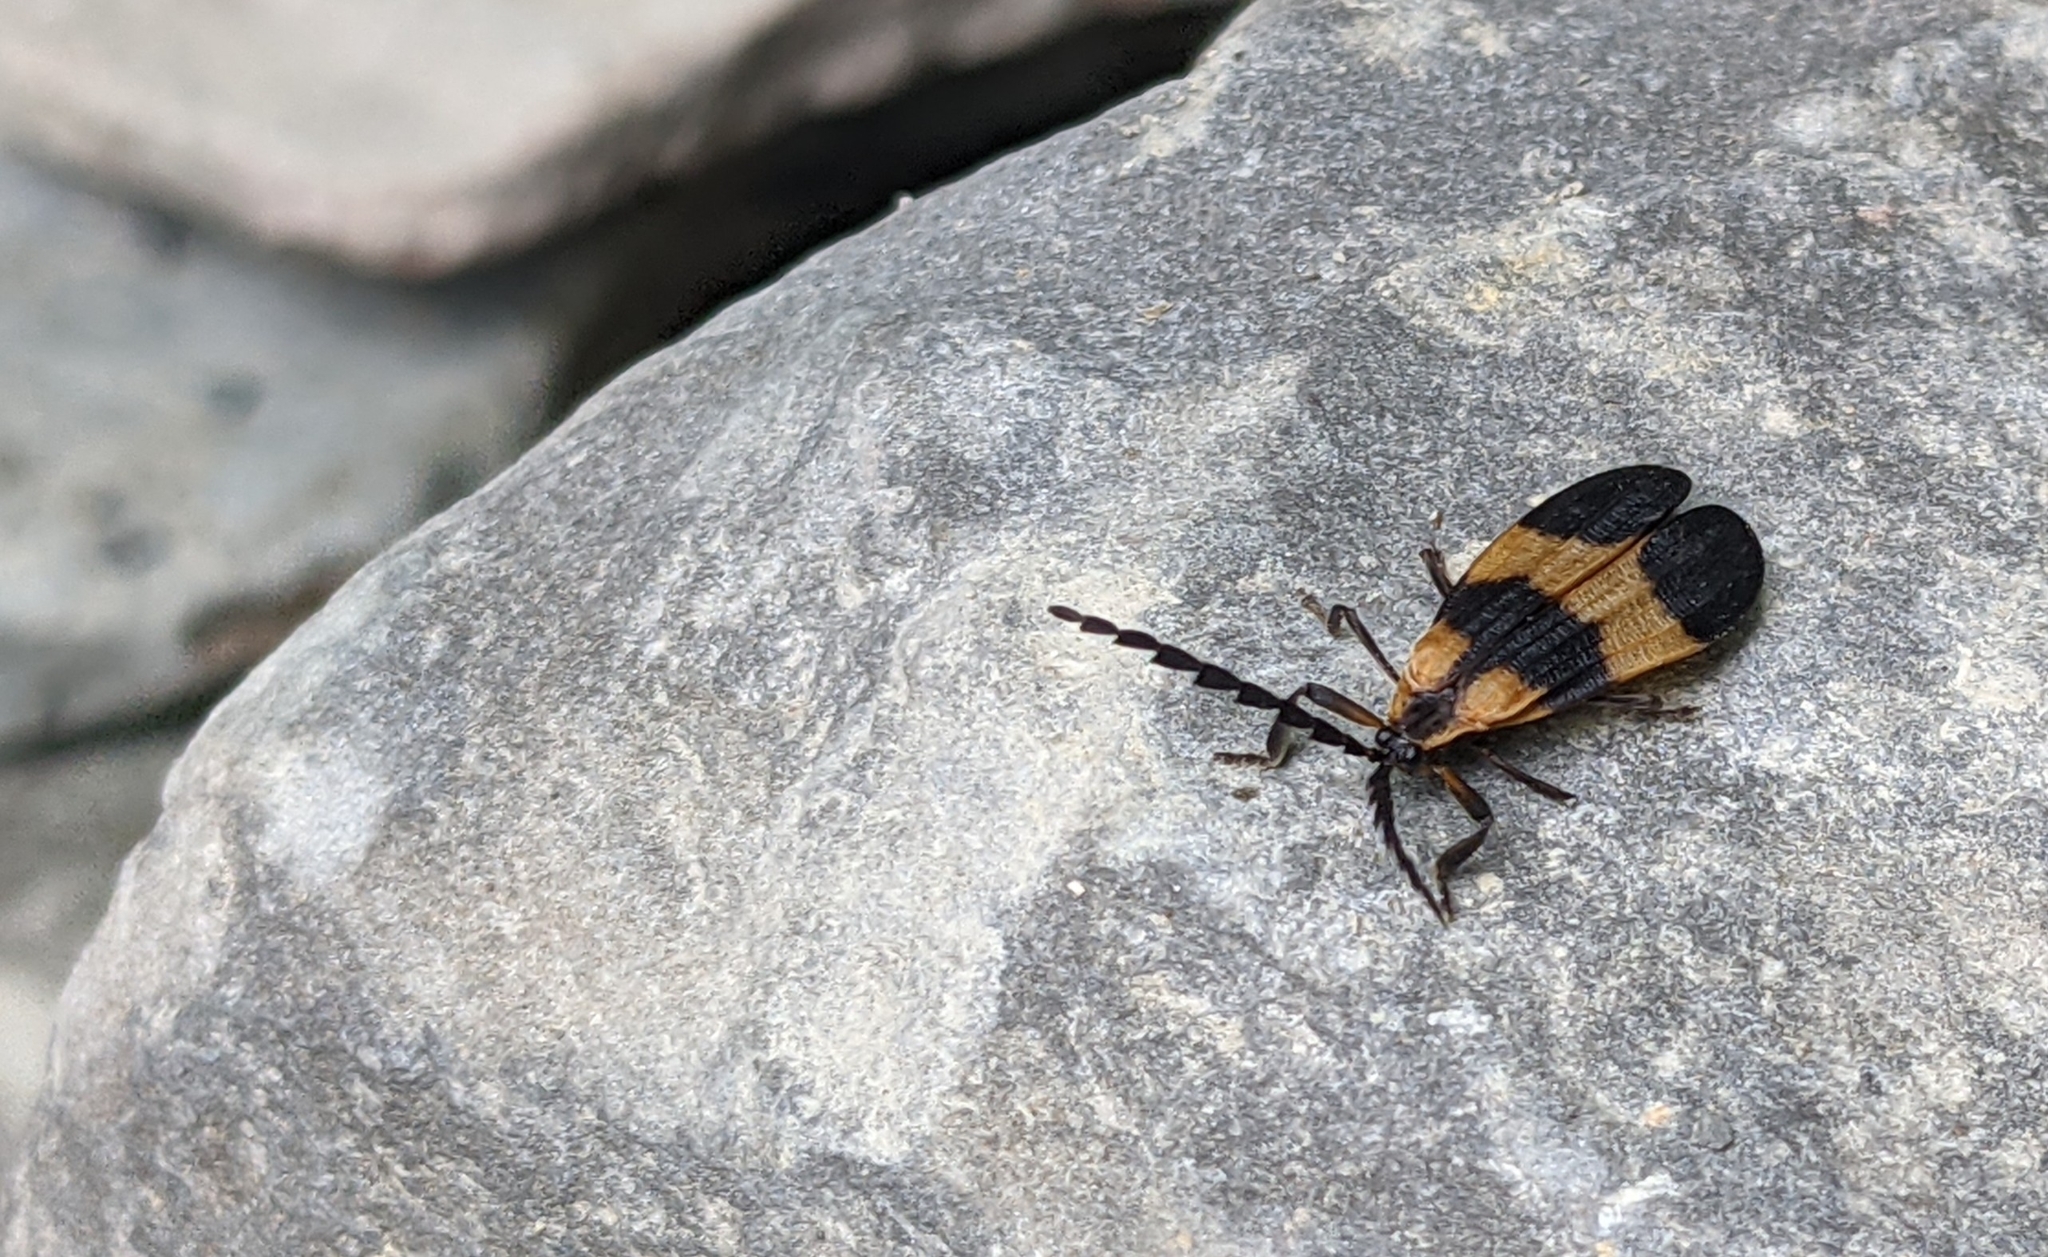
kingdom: Animalia
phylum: Arthropoda
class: Insecta
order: Coleoptera
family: Lycidae
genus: Calopteron
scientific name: Calopteron reticulatum
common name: Banded net-winged beetle
